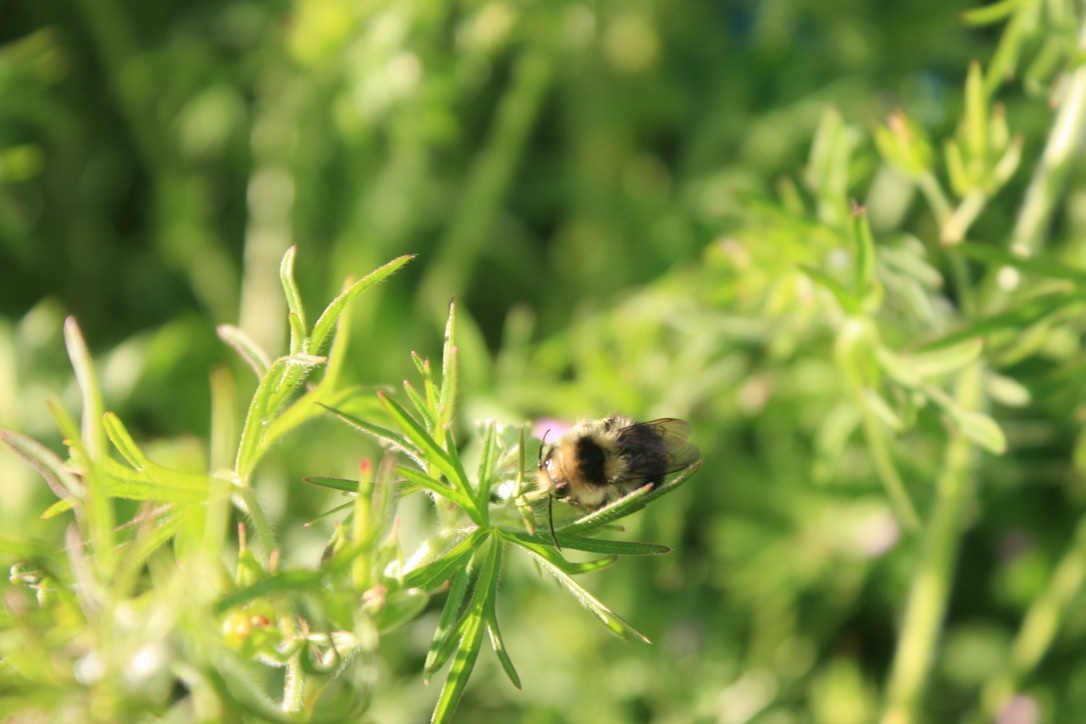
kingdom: Animalia
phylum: Arthropoda
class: Insecta
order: Hymenoptera
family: Apidae
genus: Bombus
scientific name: Bombus melanopygus
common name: Black tail bumble bee
